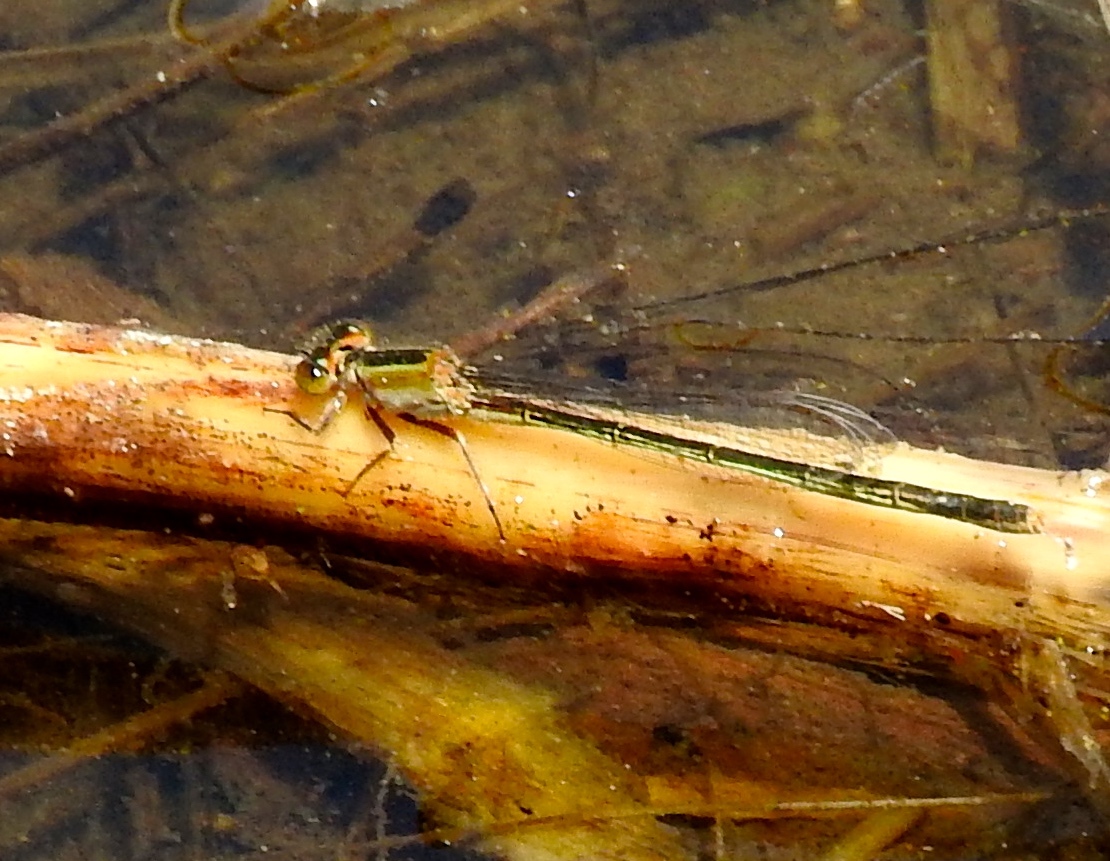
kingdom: Animalia
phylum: Arthropoda
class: Insecta
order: Odonata
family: Coenagrionidae
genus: Ischnura
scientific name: Ischnura ramburii
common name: Rambur's forktail
